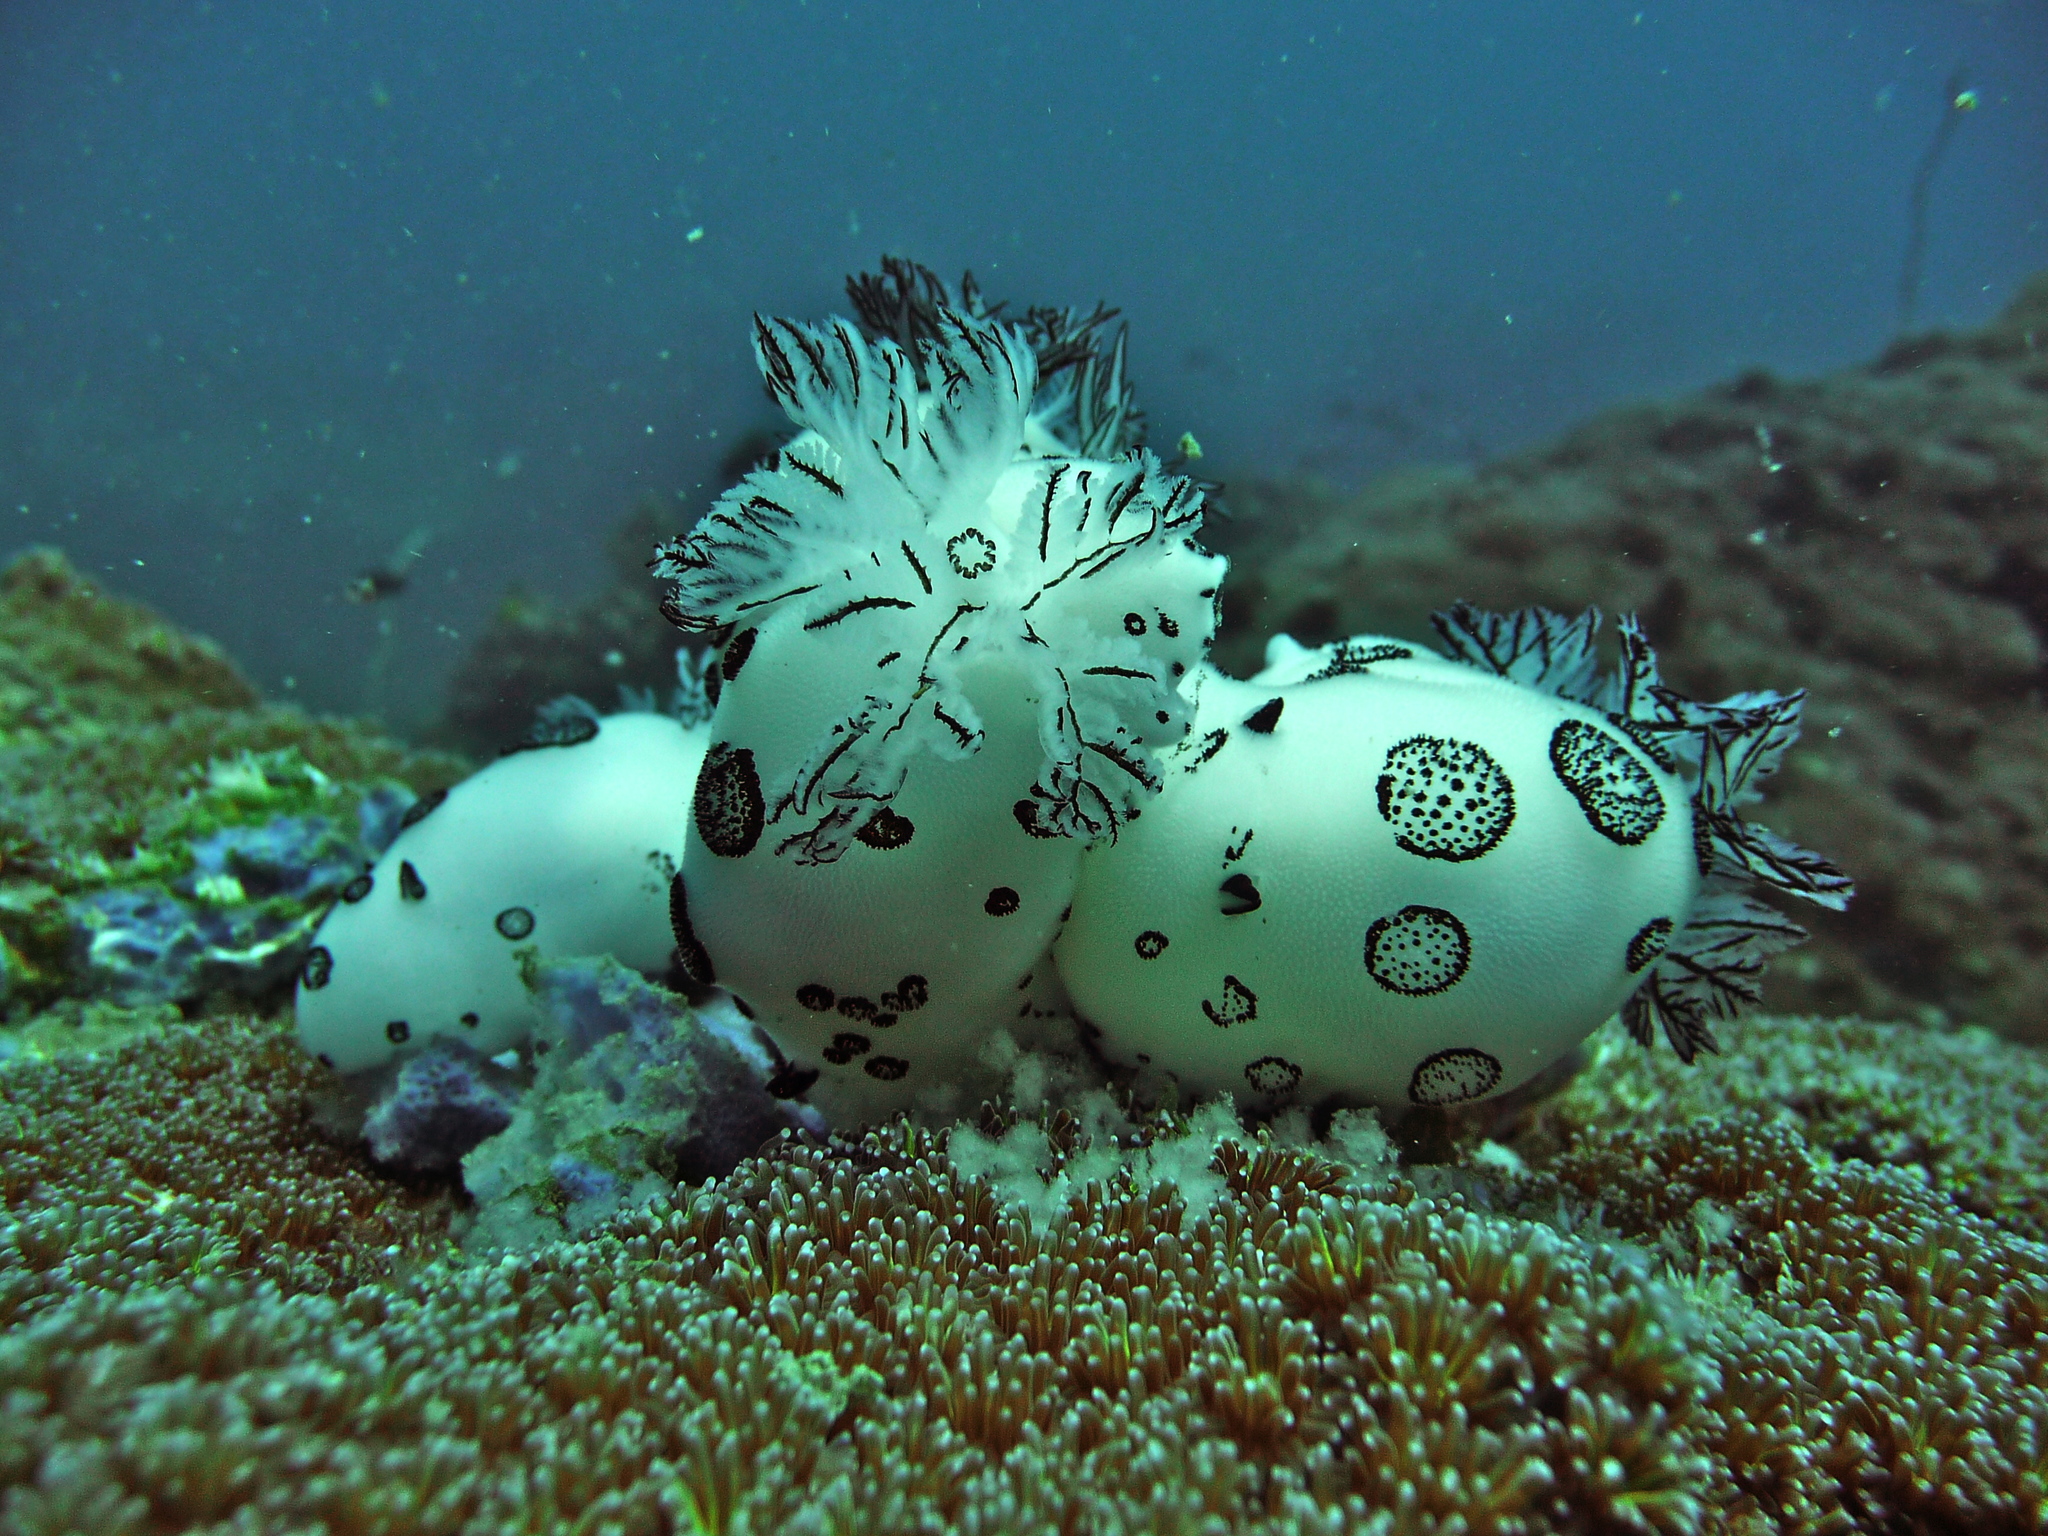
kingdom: Animalia
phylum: Mollusca
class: Gastropoda
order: Nudibranchia
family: Discodorididae
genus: Jorunna
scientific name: Jorunna funebris
